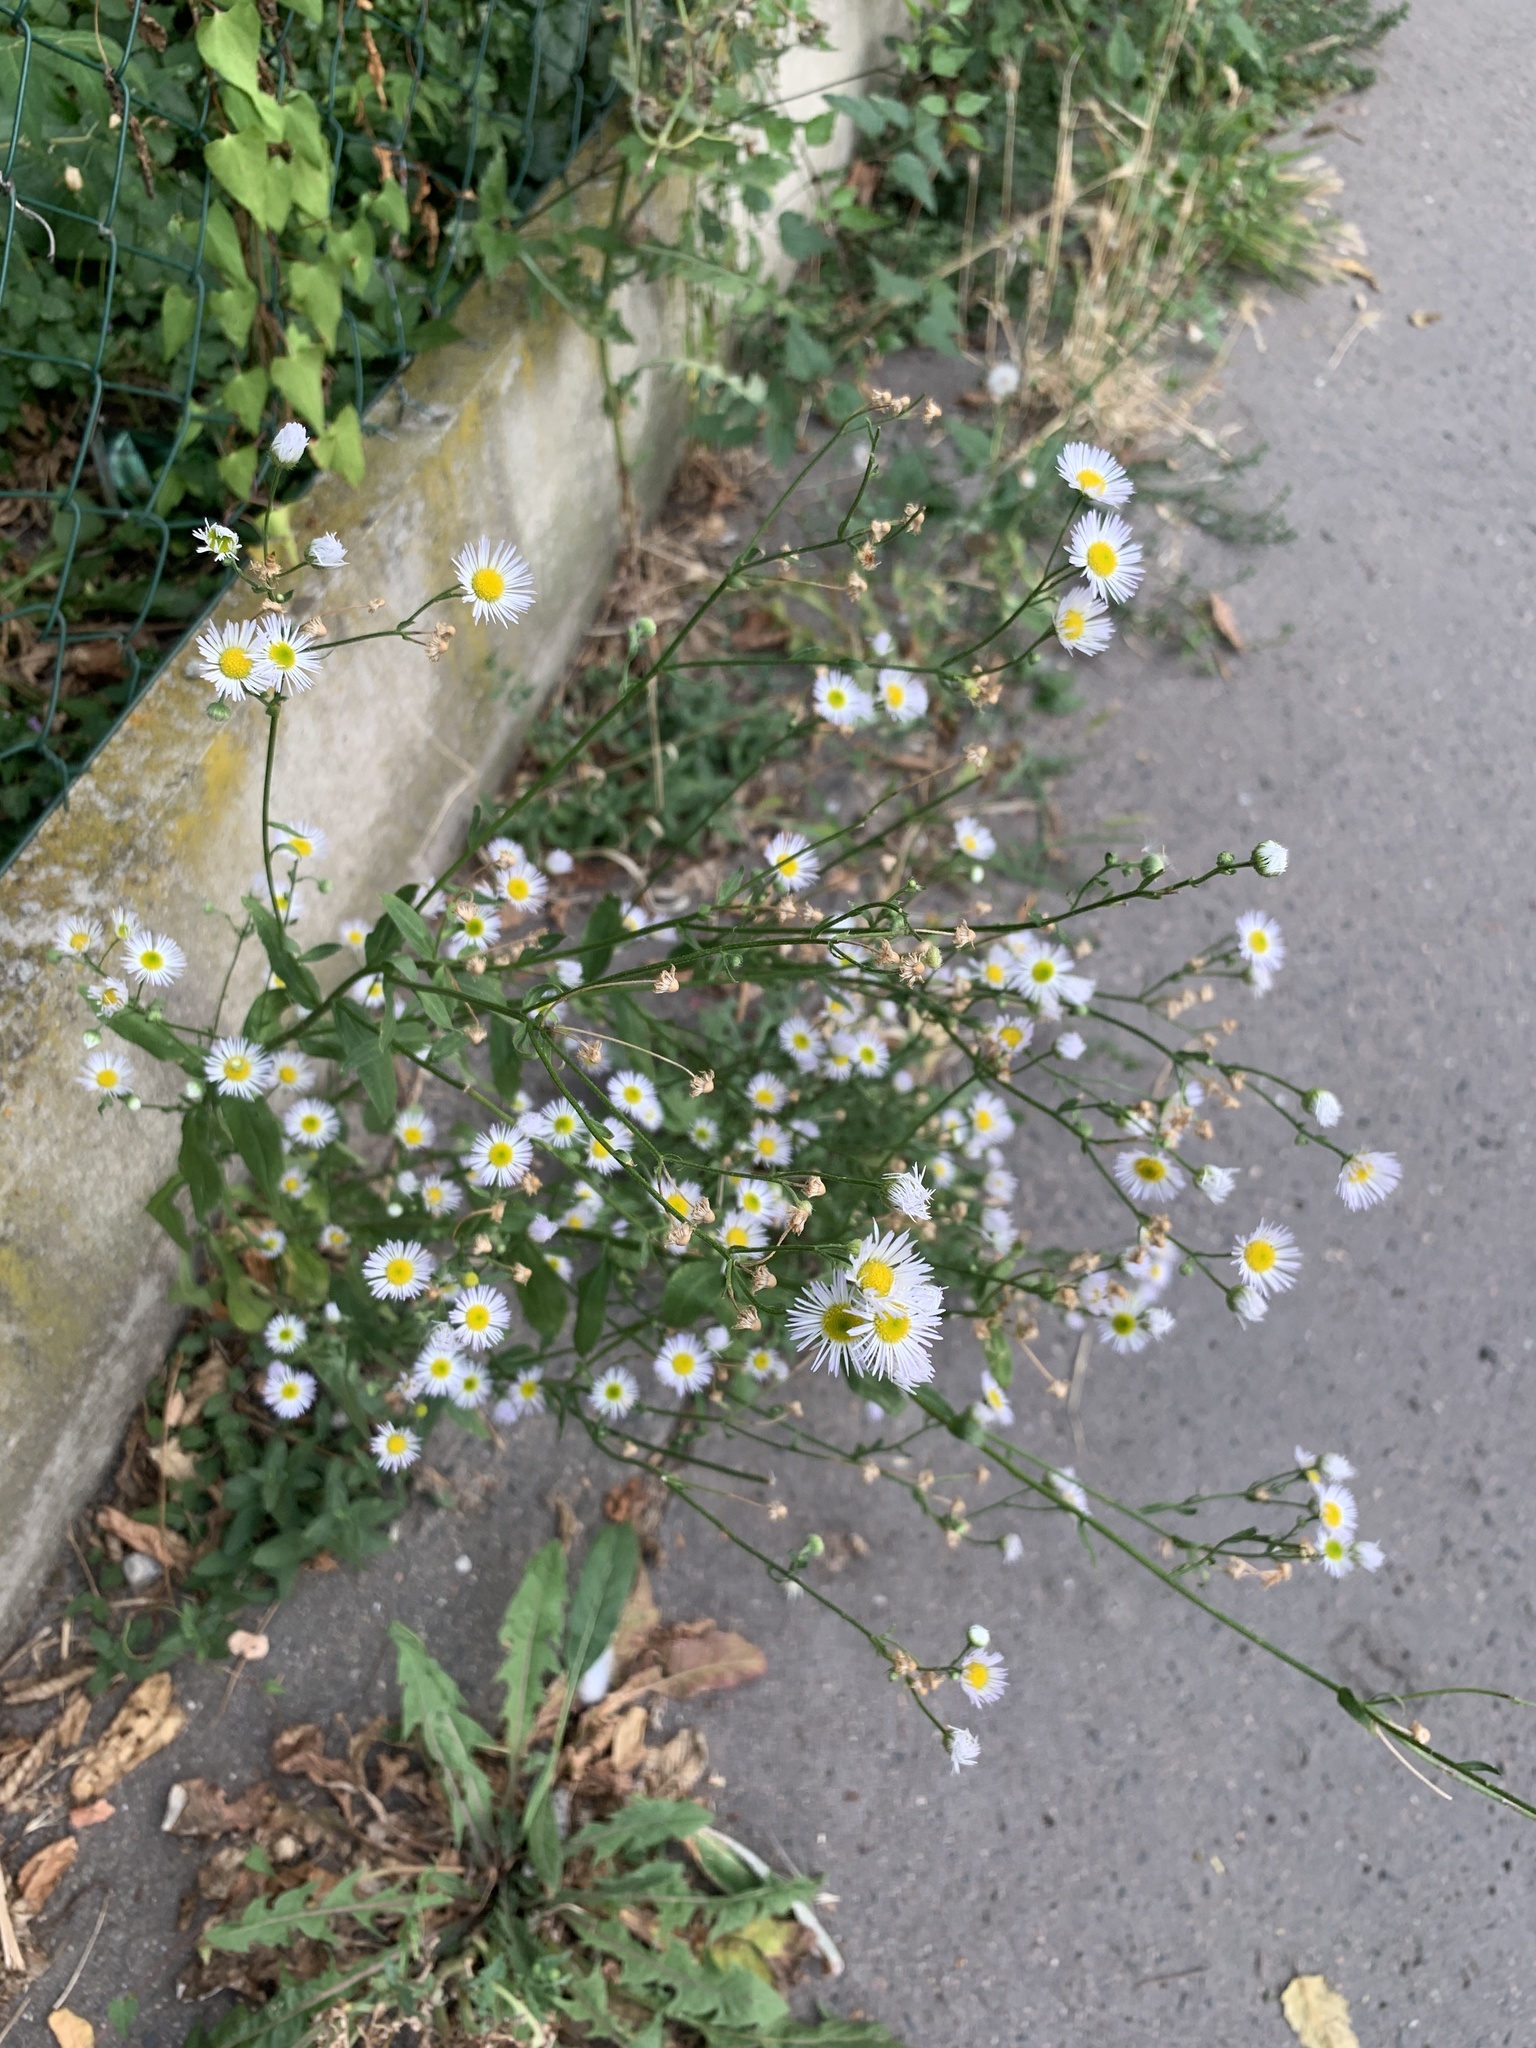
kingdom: Plantae
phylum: Tracheophyta
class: Magnoliopsida
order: Asterales
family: Asteraceae
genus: Erigeron
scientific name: Erigeron annuus
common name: Tall fleabane
